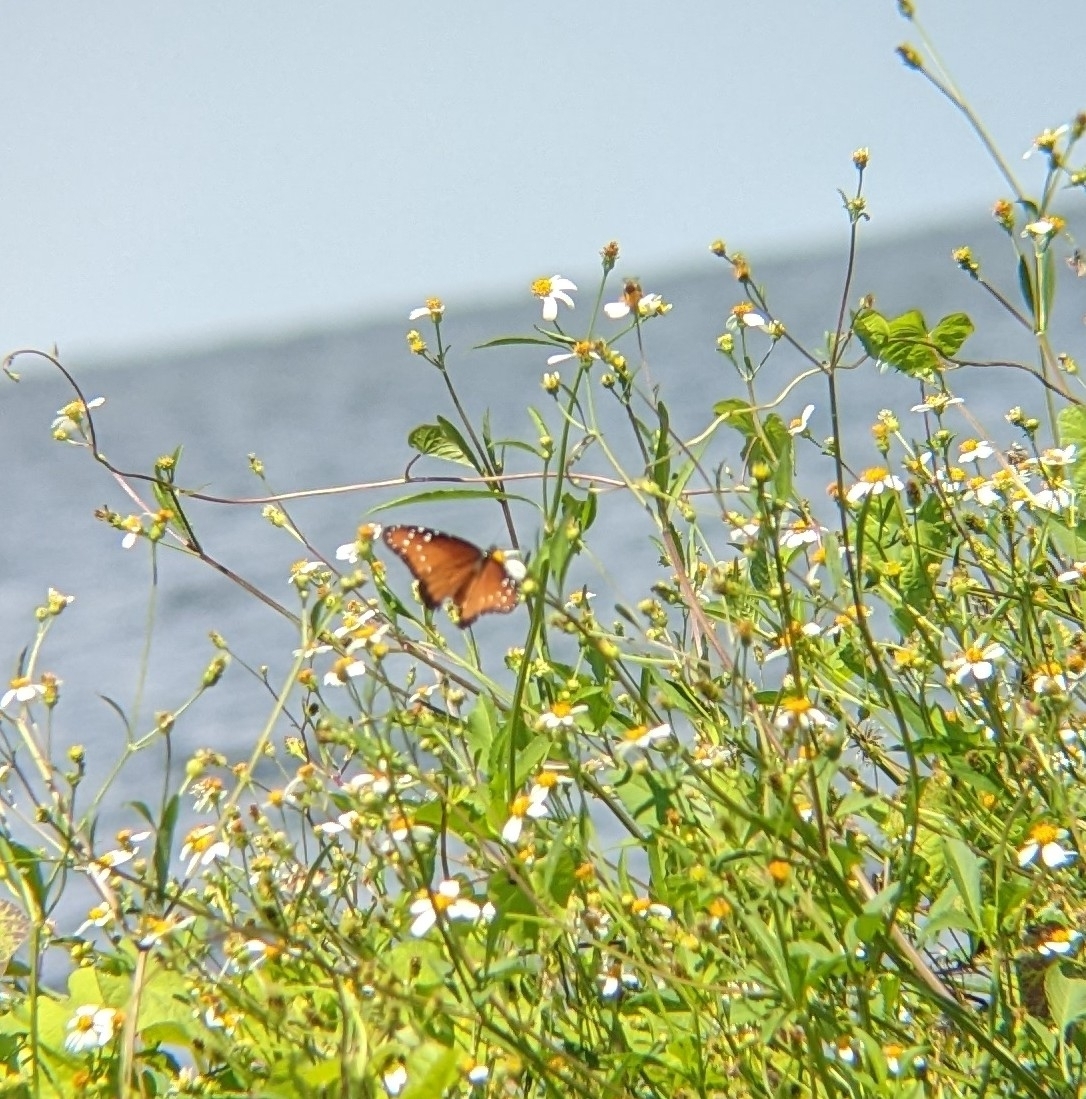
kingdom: Animalia
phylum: Arthropoda
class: Insecta
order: Lepidoptera
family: Nymphalidae
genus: Danaus
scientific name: Danaus gilippus
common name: Queen
